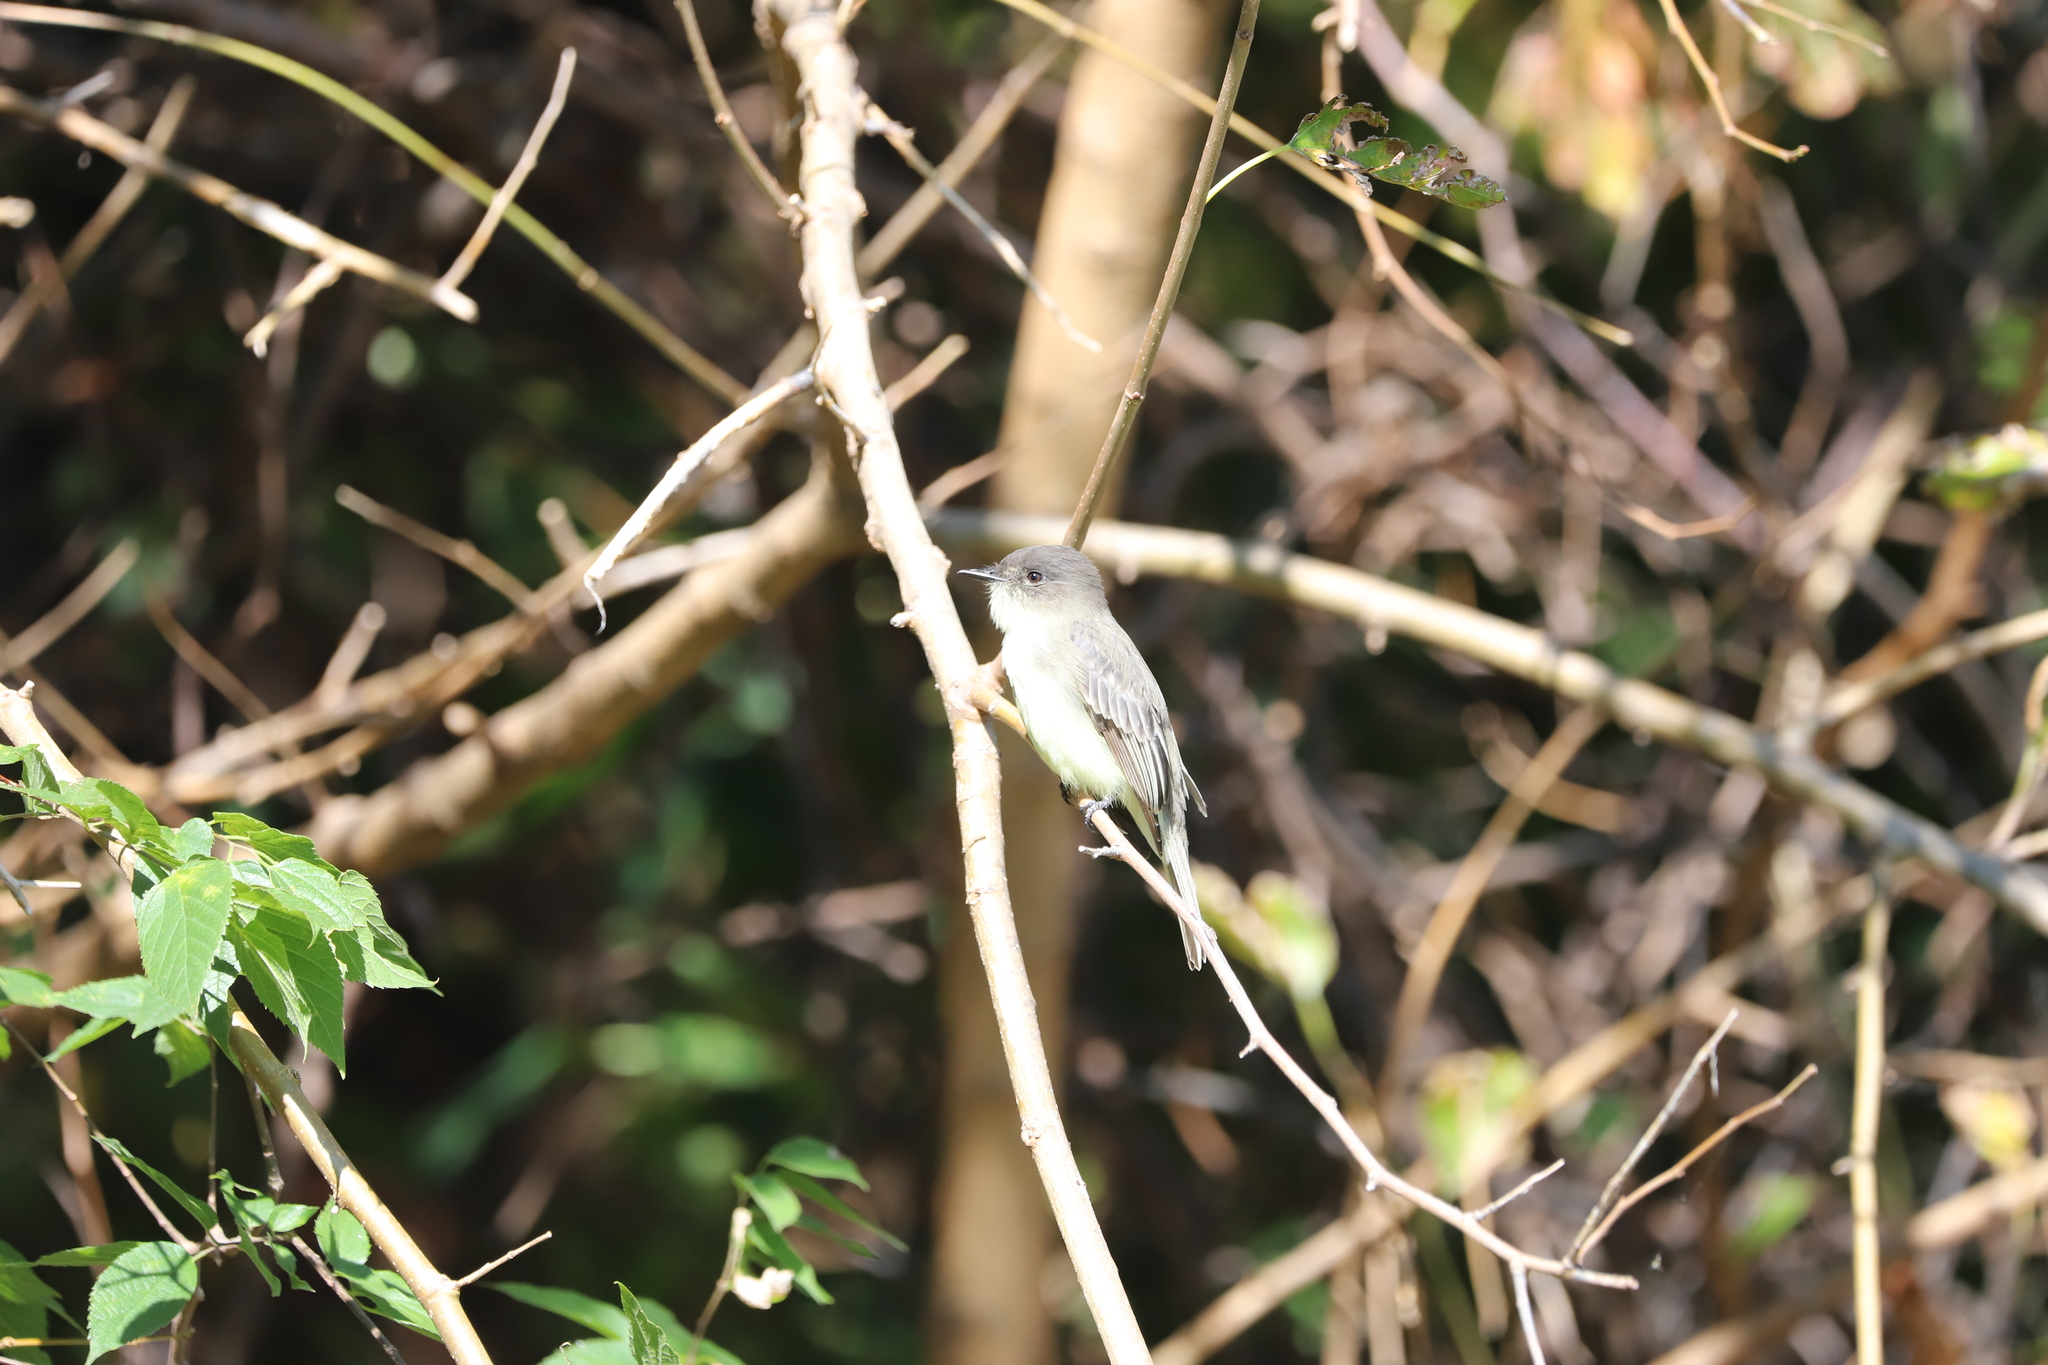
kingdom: Animalia
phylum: Chordata
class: Aves
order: Passeriformes
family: Tyrannidae
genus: Sayornis
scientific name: Sayornis phoebe
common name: Eastern phoebe
